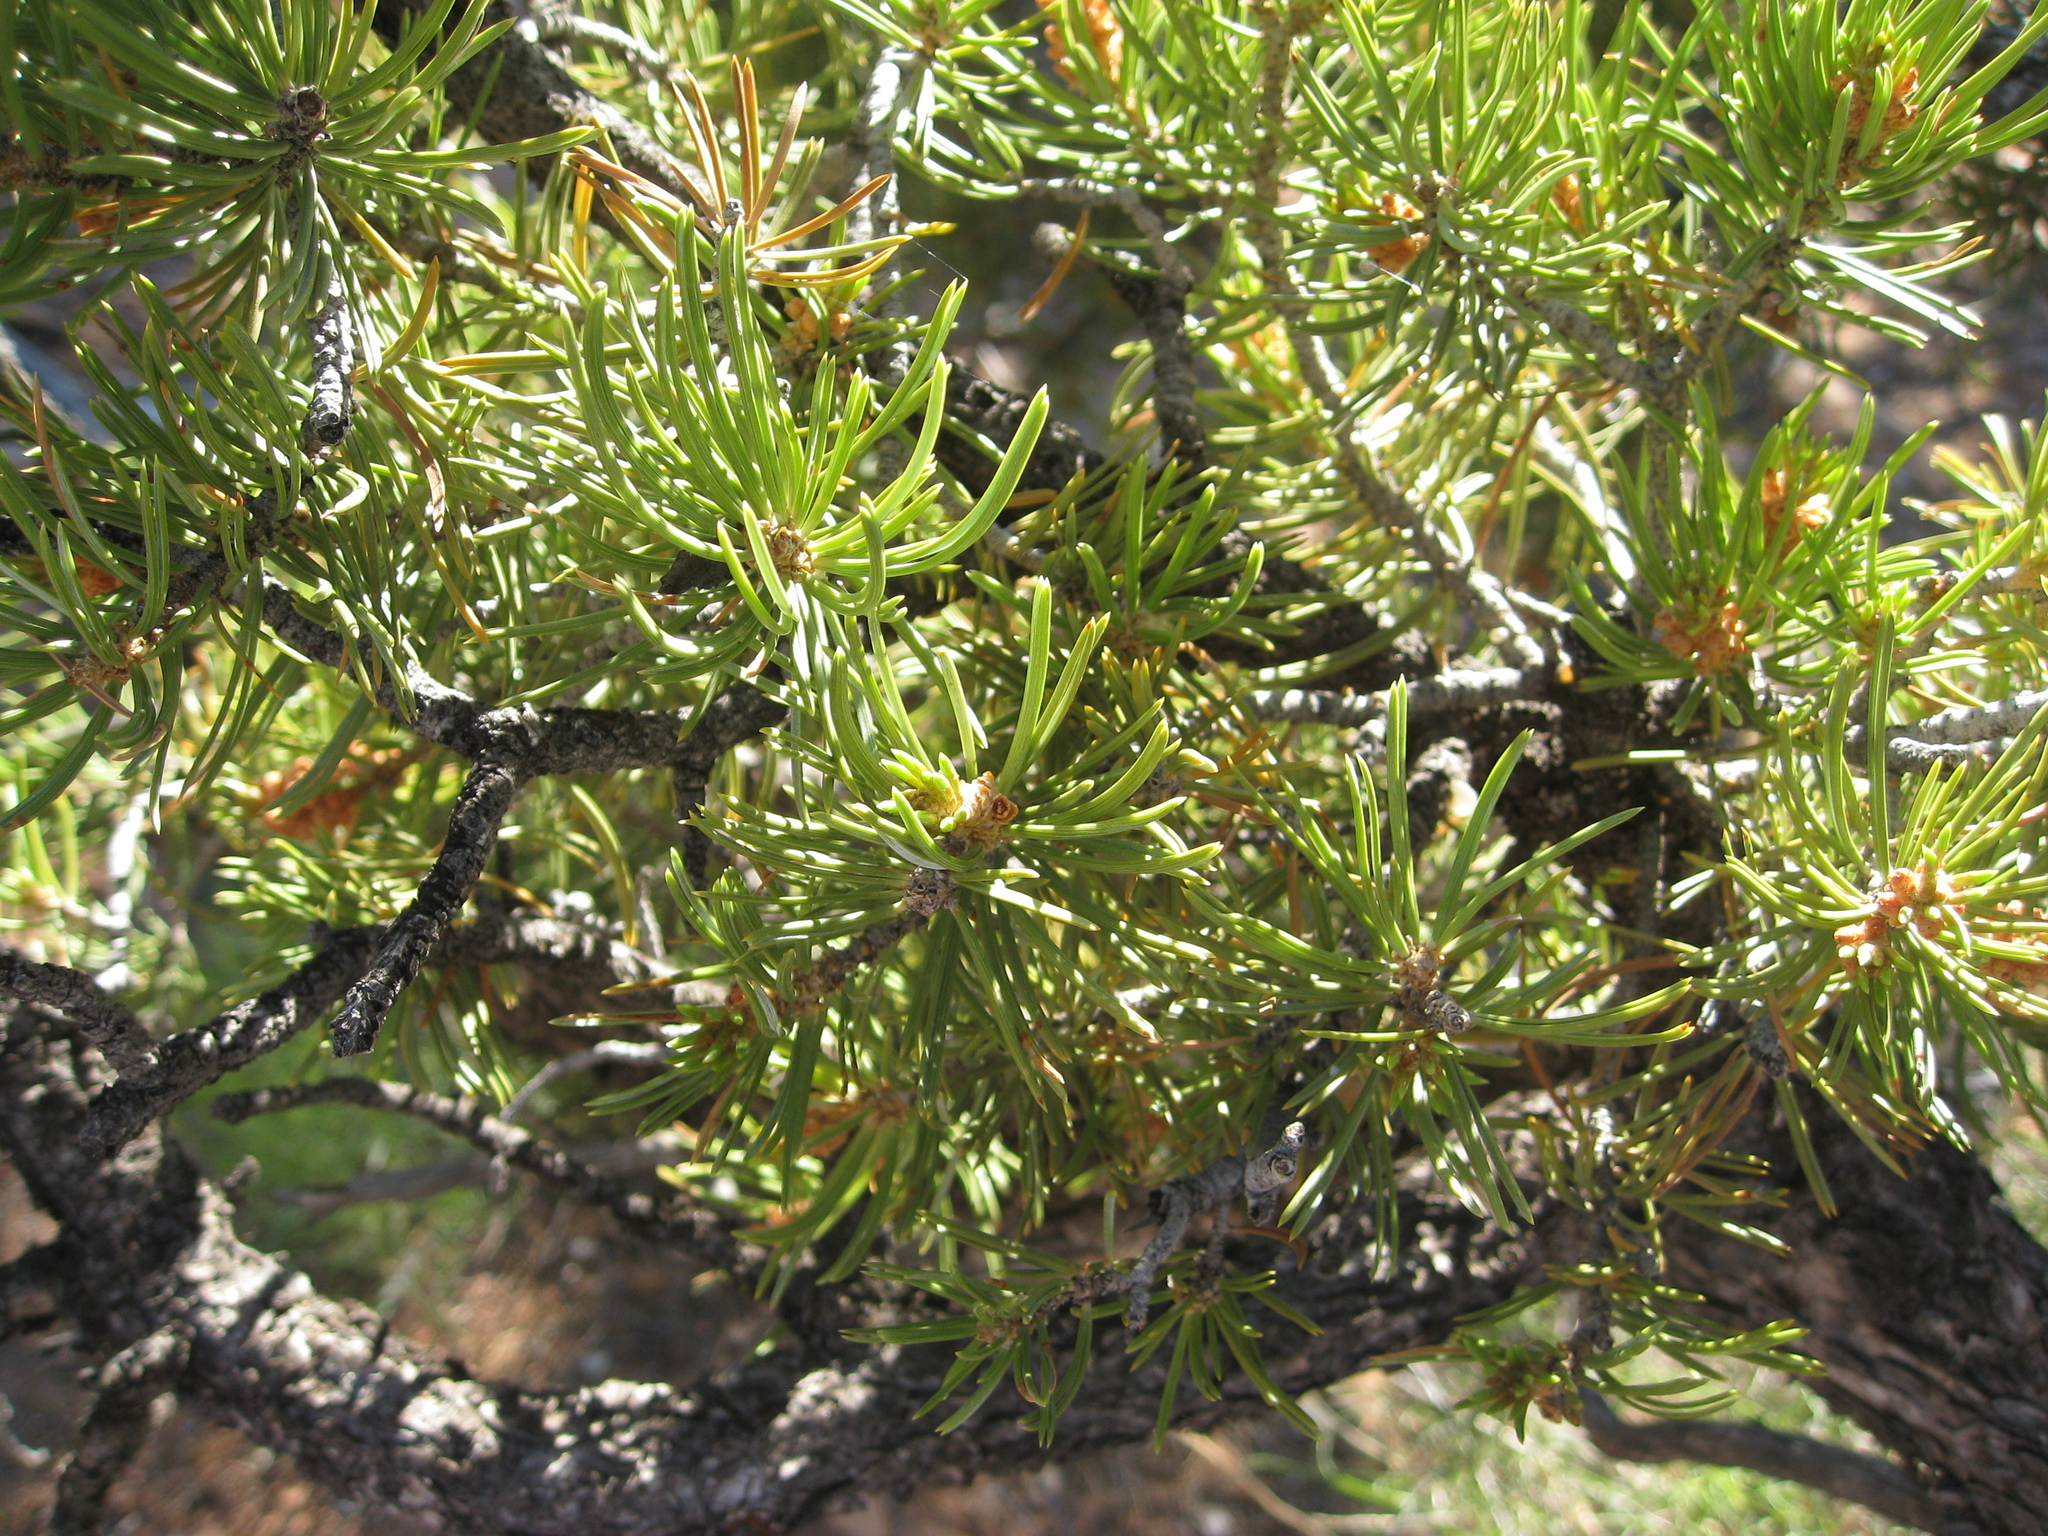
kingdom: Plantae
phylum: Tracheophyta
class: Pinopsida
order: Pinales
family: Pinaceae
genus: Pinus
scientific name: Pinus edulis
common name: Colorado pinyon
